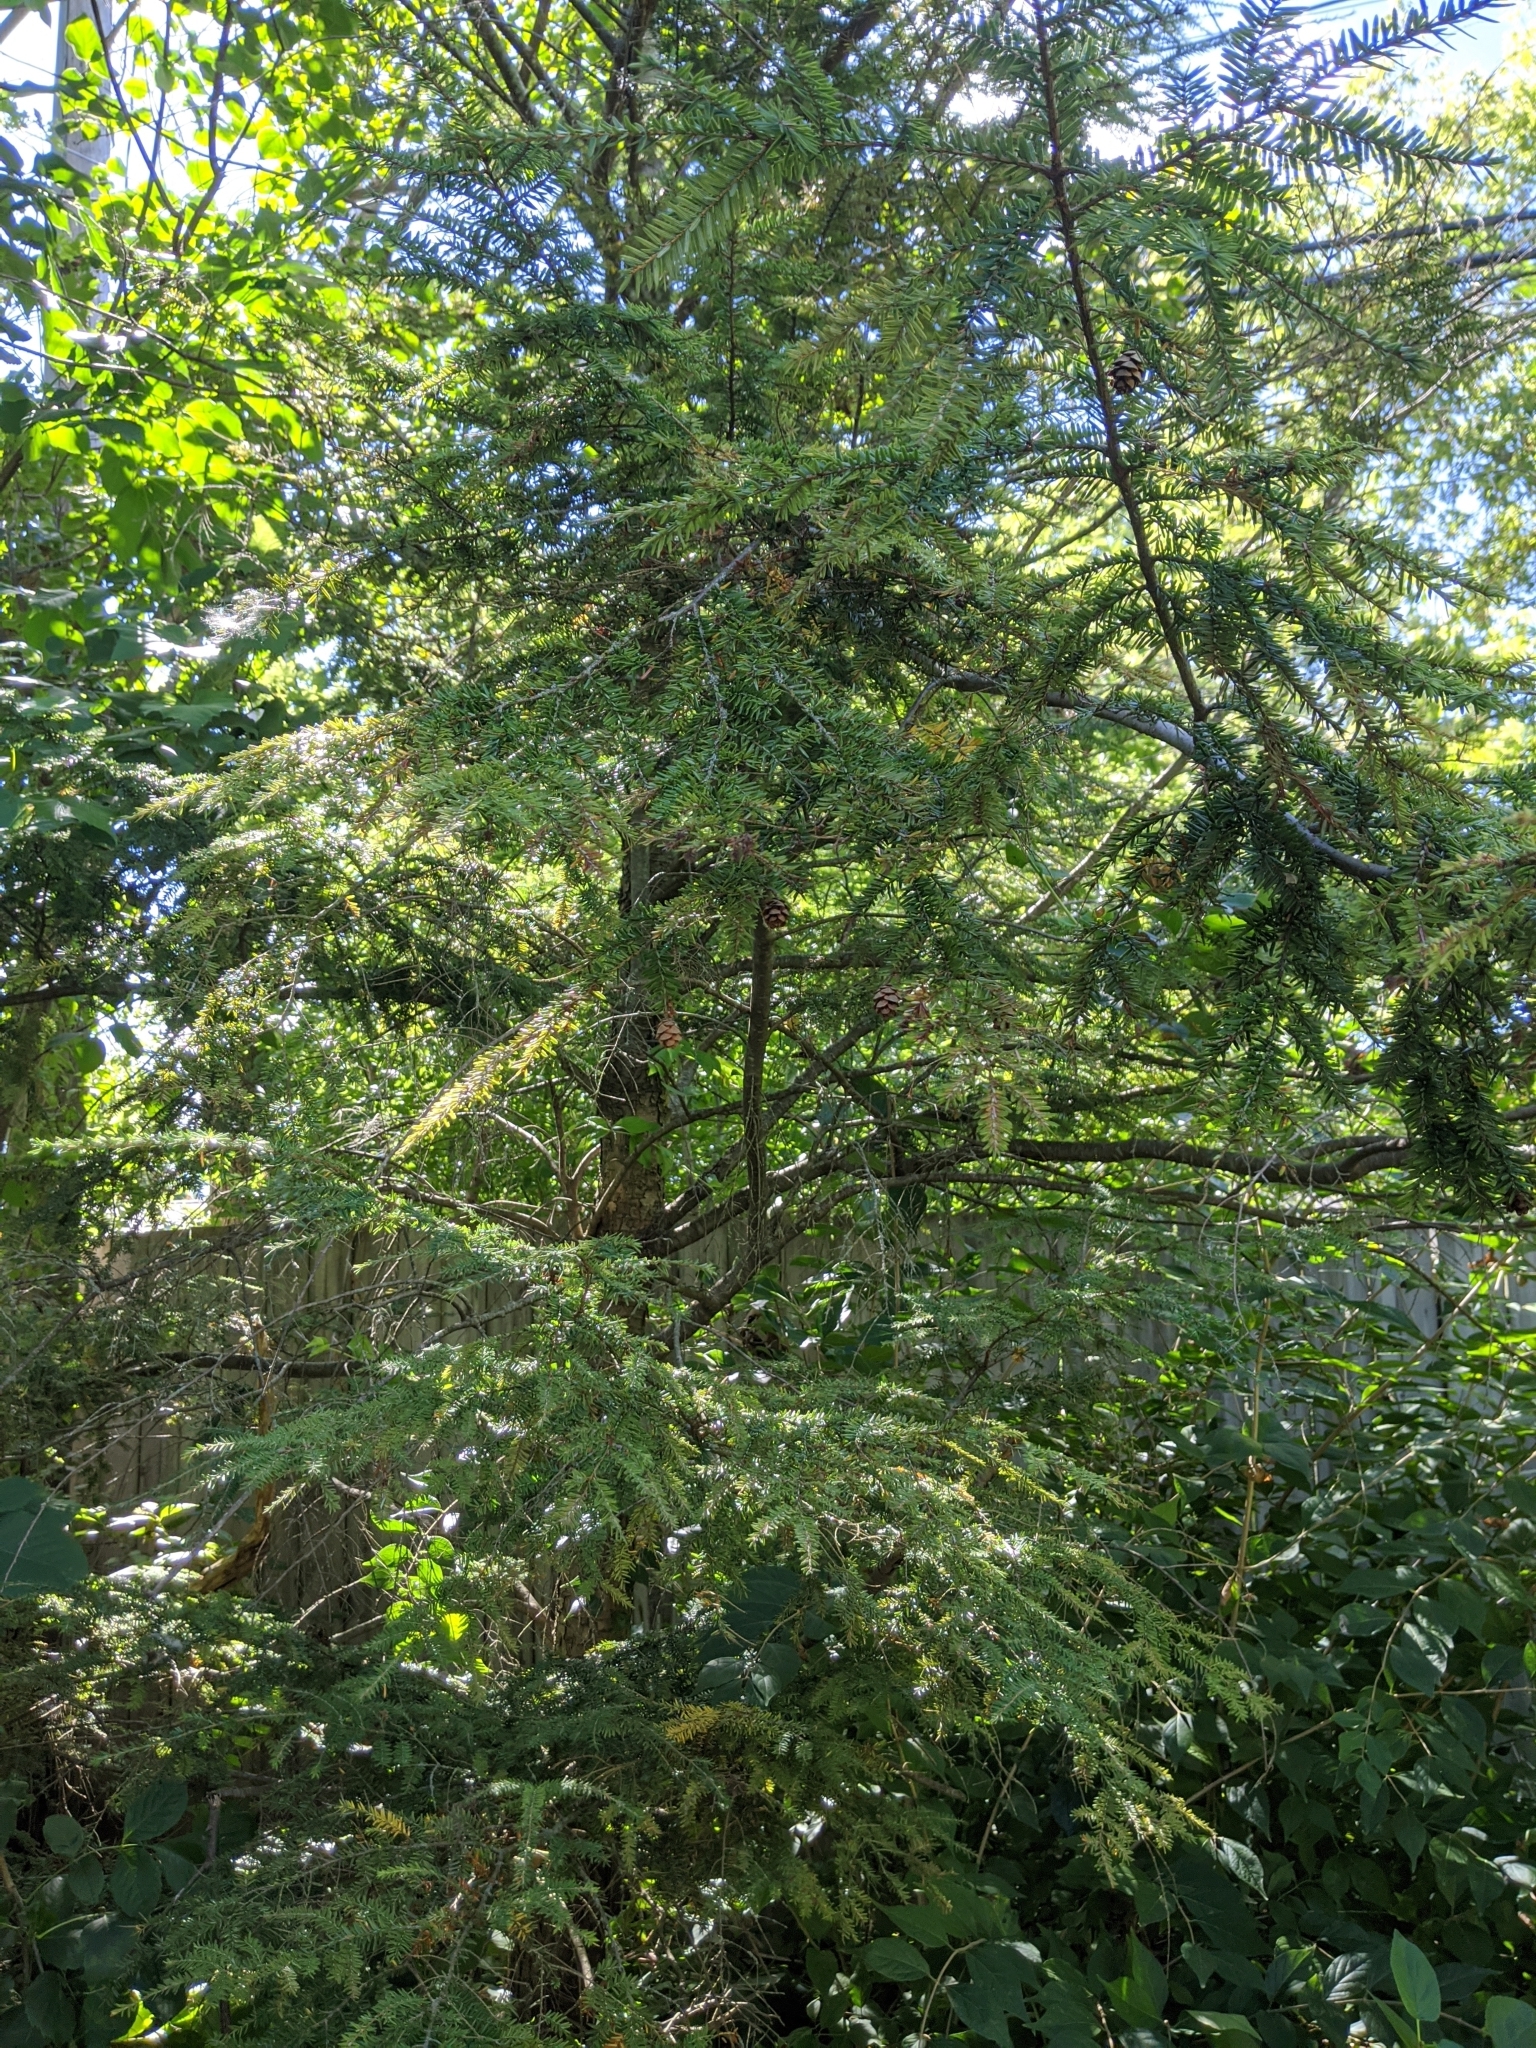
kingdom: Plantae
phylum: Tracheophyta
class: Pinopsida
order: Pinales
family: Pinaceae
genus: Tsuga
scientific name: Tsuga canadensis
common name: Eastern hemlock
